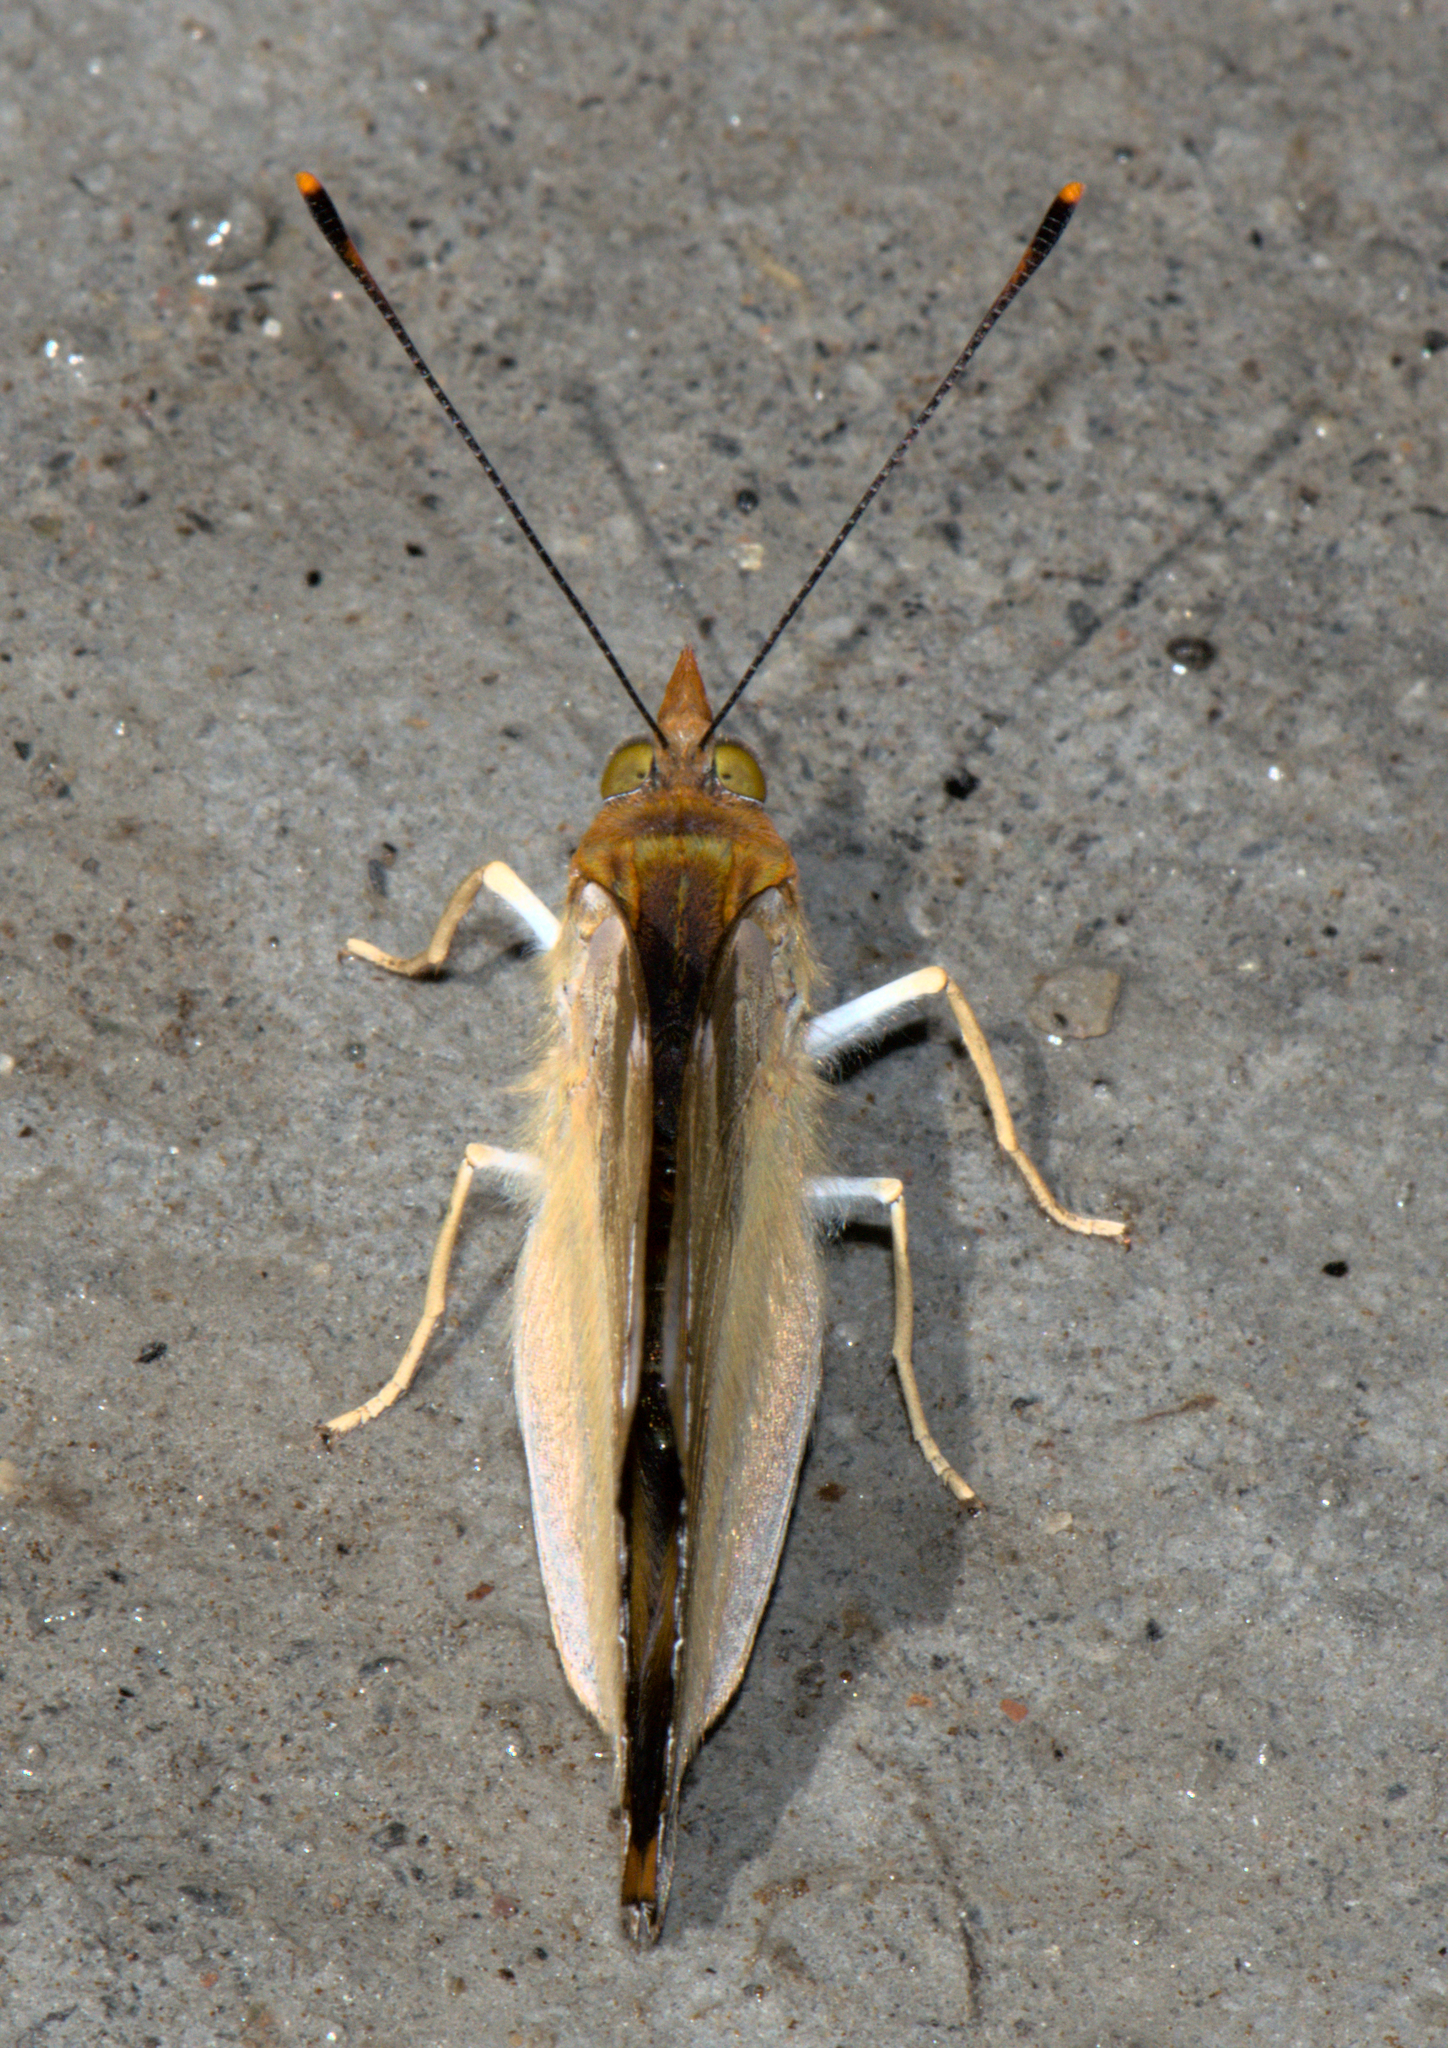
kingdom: Animalia
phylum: Arthropoda
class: Insecta
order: Lepidoptera
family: Nymphalidae
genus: Dilipa
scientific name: Dilipa morgiana
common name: Golden emperor
